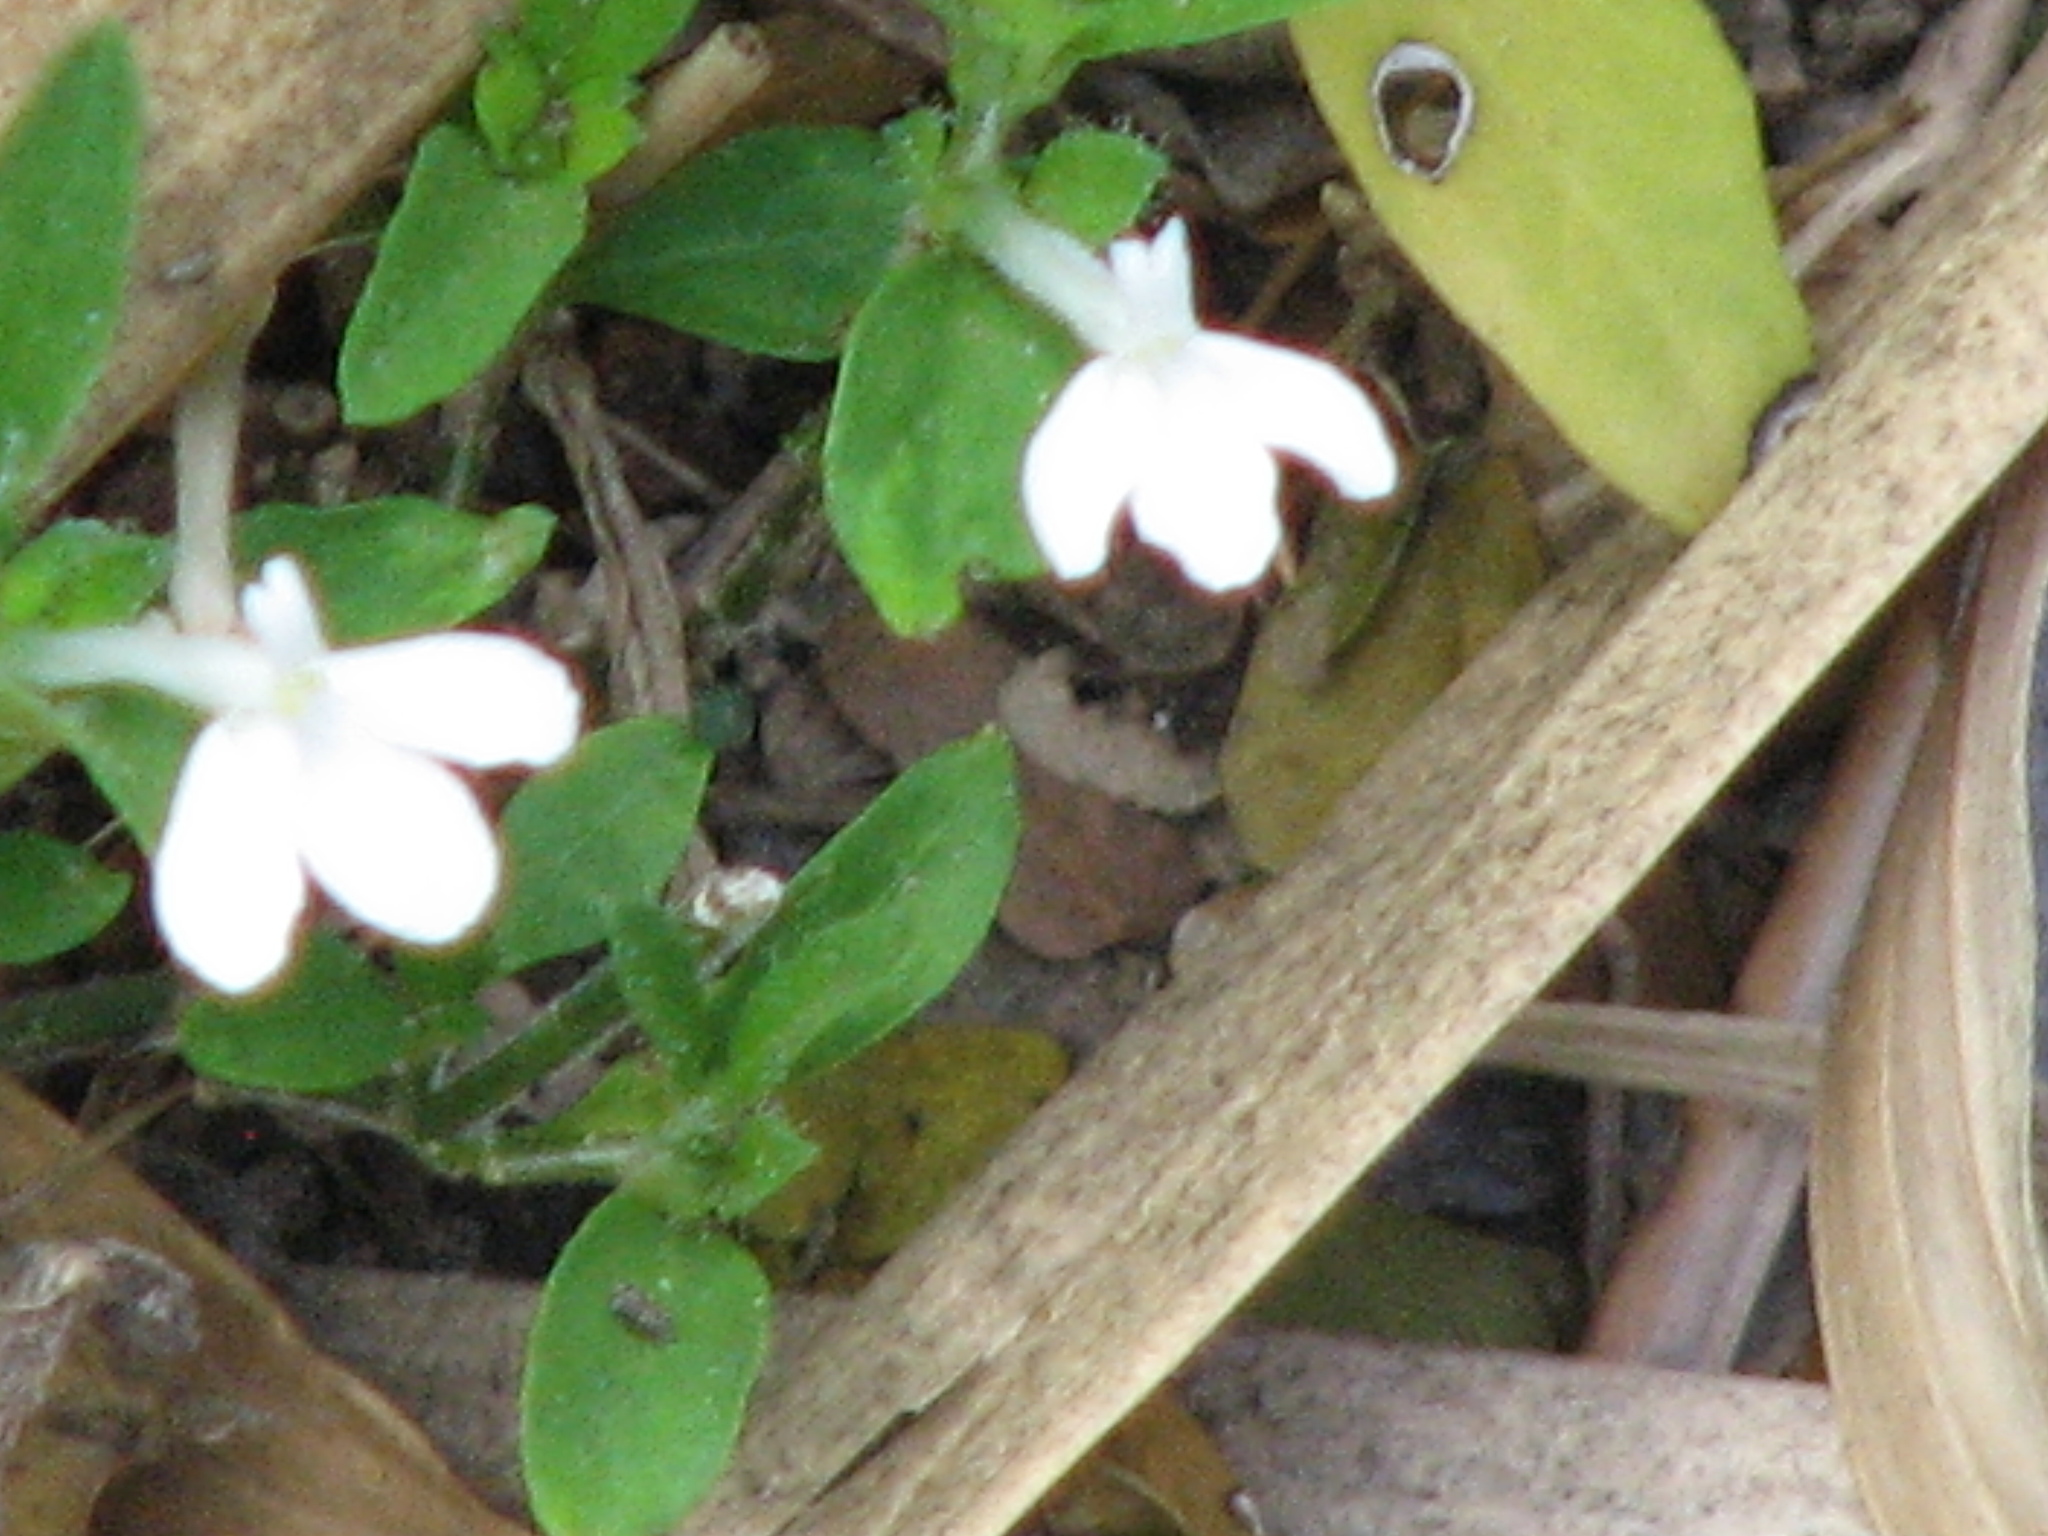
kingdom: Plantae
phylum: Tracheophyta
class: Magnoliopsida
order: Lamiales
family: Acanthaceae
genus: Justicia
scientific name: Justicia pilosella
